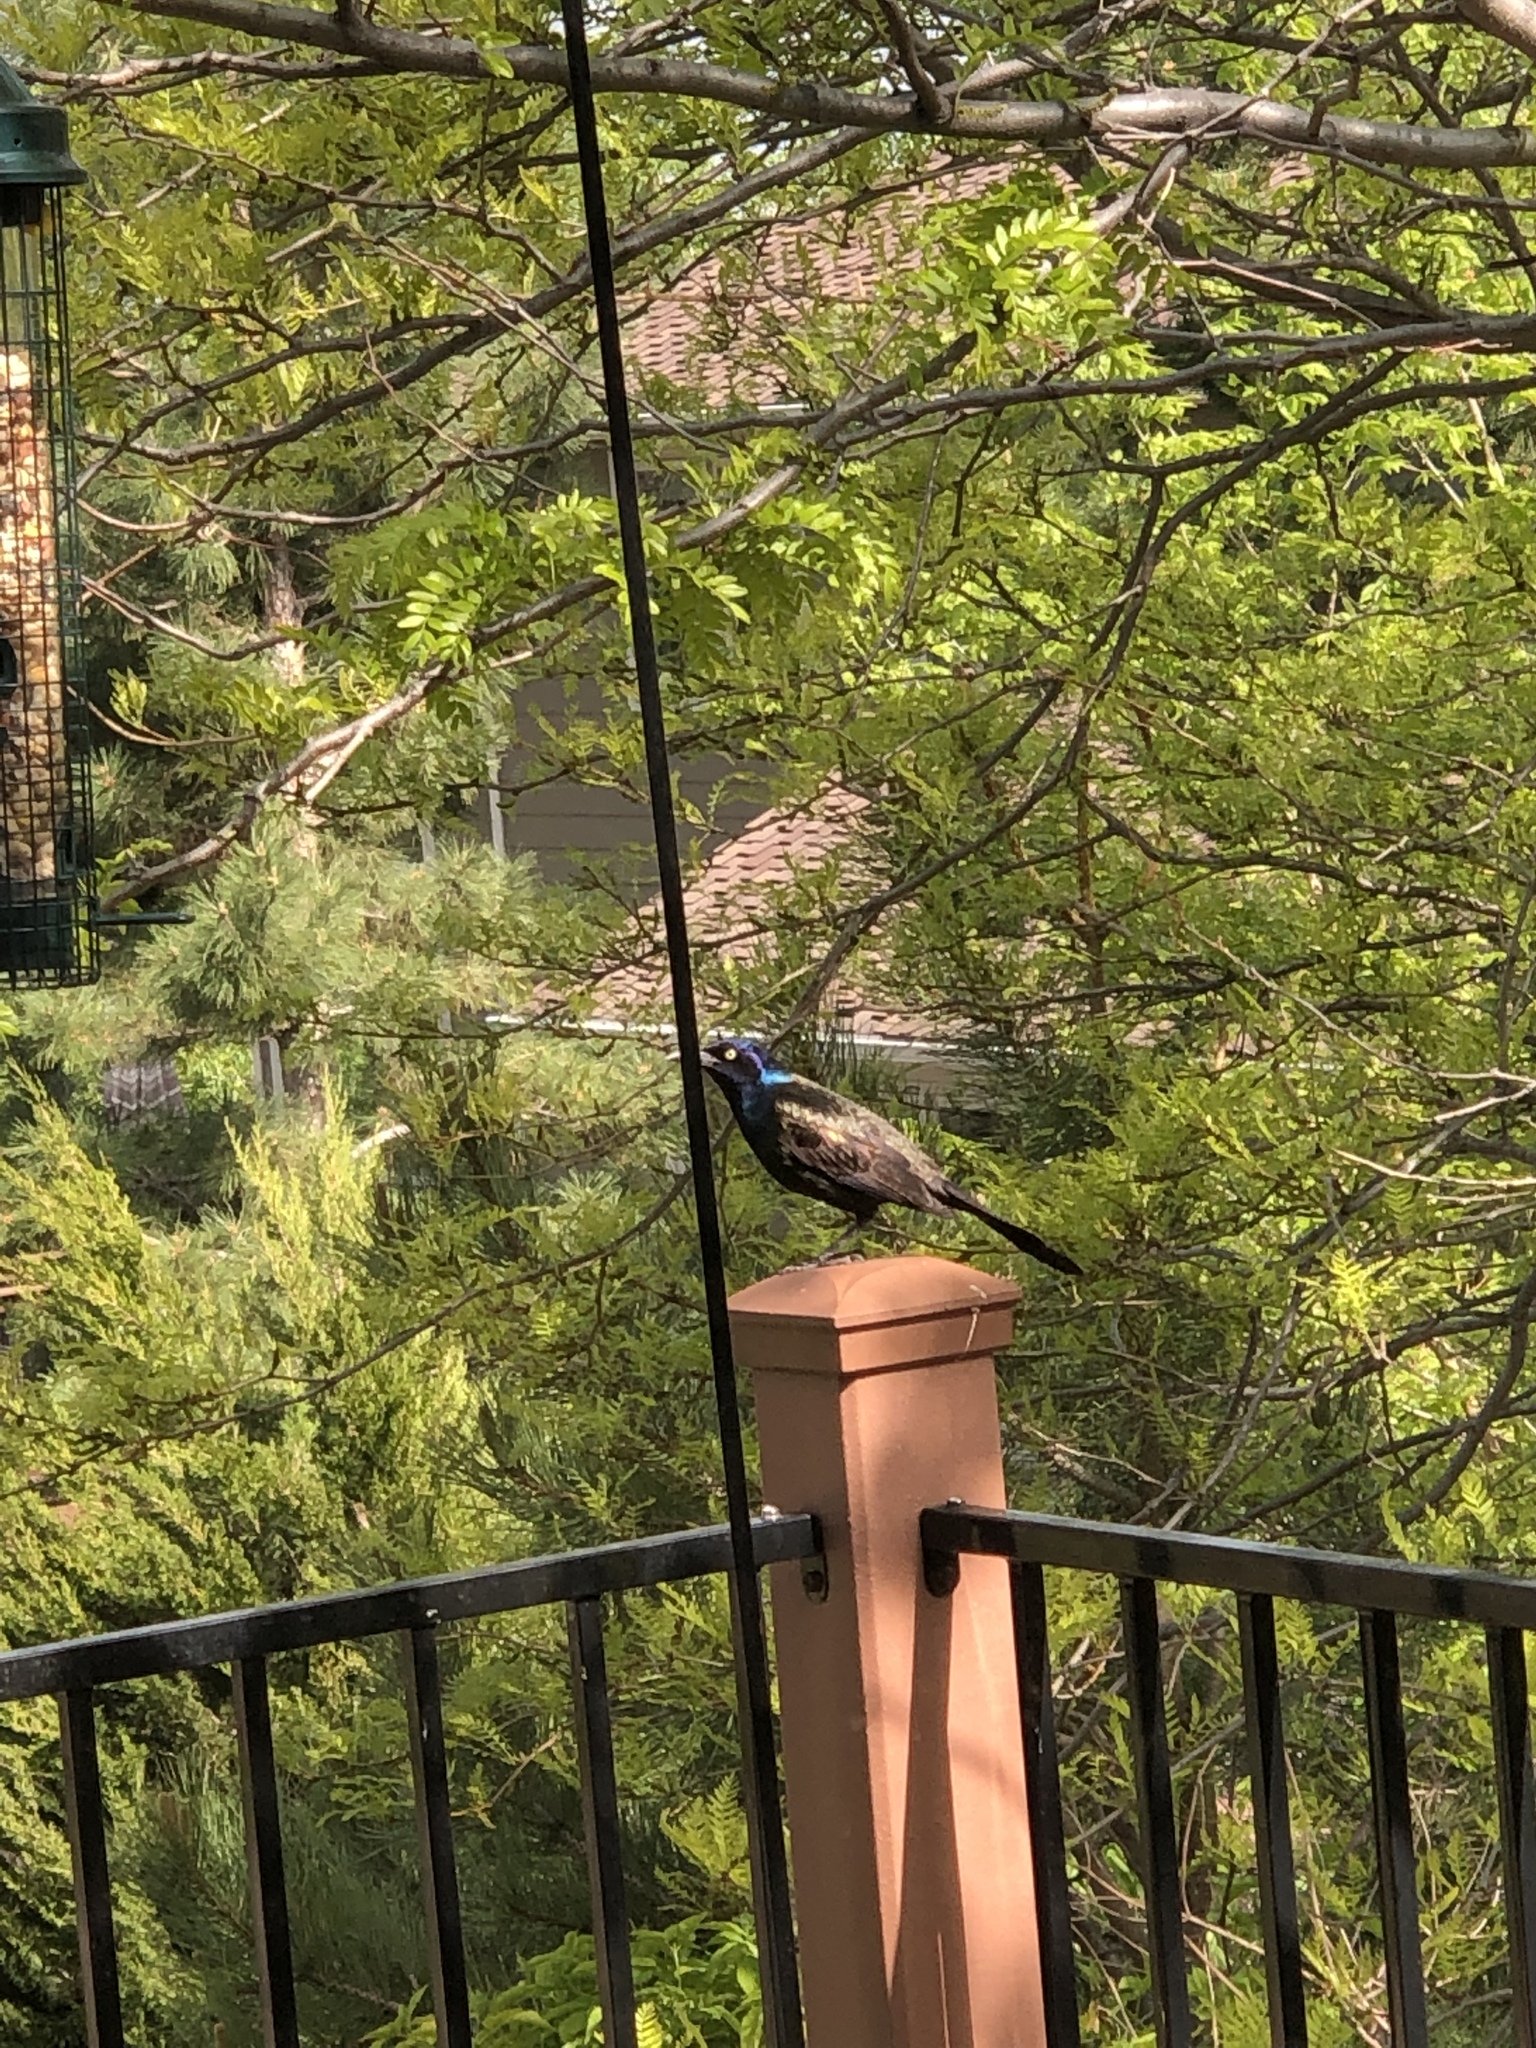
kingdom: Animalia
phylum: Chordata
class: Aves
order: Passeriformes
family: Icteridae
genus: Quiscalus
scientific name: Quiscalus quiscula
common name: Common grackle
